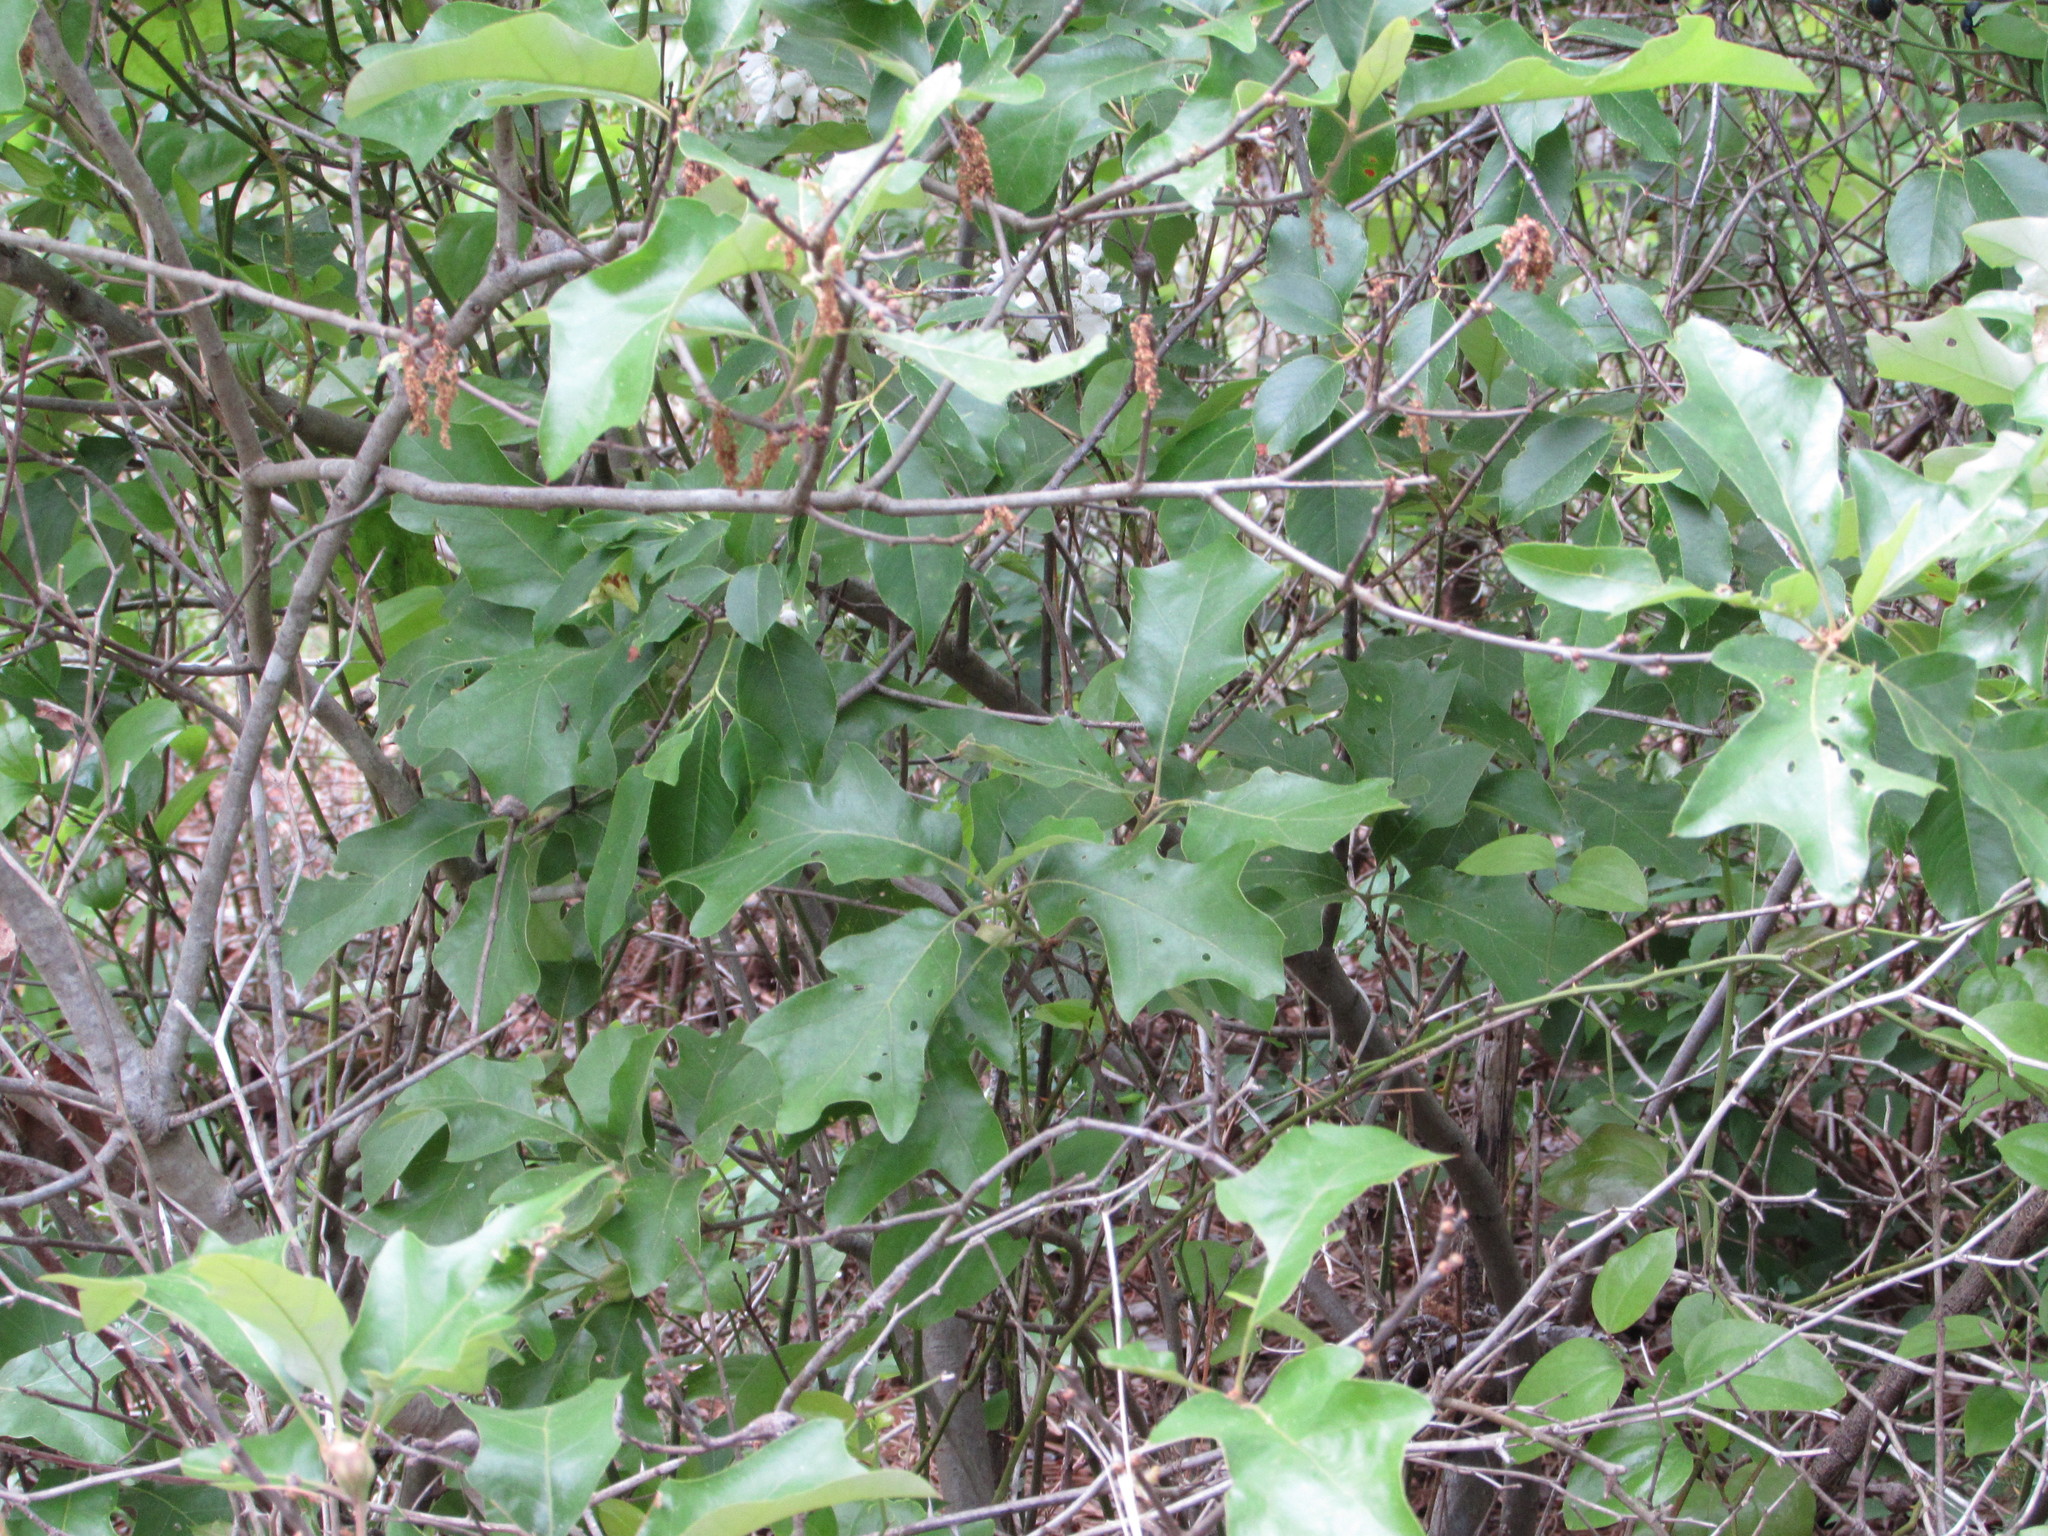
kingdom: Plantae
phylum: Tracheophyta
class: Magnoliopsida
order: Fagales
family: Fagaceae
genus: Quercus
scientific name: Quercus ilicifolia
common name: Bear oak
